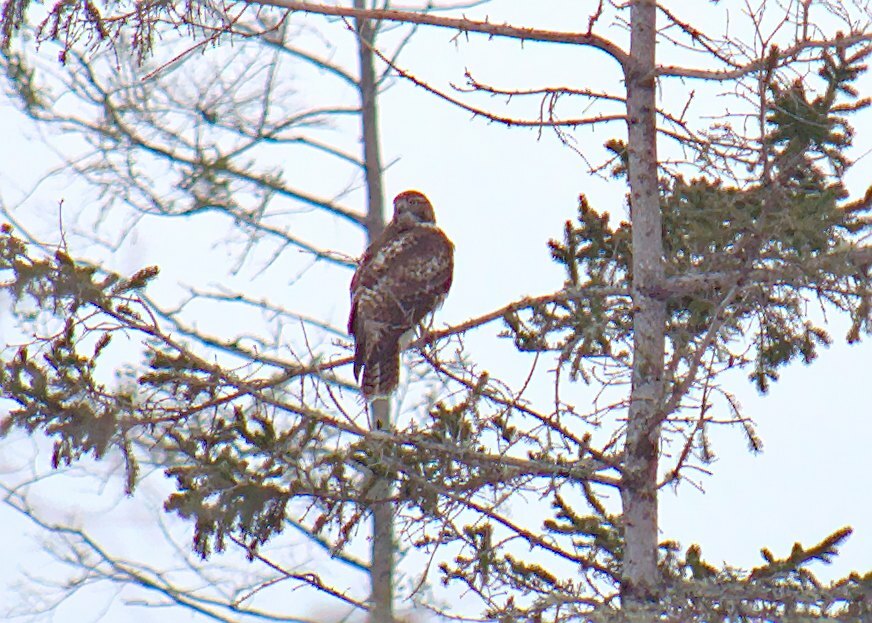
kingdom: Animalia
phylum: Chordata
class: Aves
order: Accipitriformes
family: Accipitridae
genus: Buteo
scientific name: Buteo jamaicensis
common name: Red-tailed hawk
